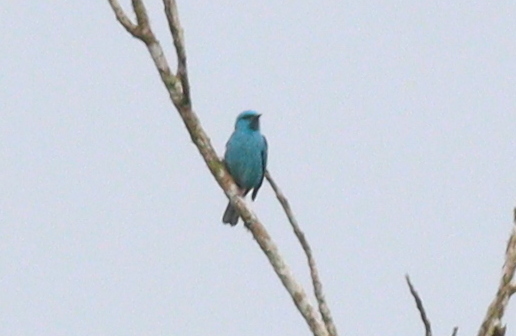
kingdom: Animalia
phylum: Chordata
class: Aves
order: Passeriformes
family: Thraupidae
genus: Dacnis
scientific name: Dacnis cayana
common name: Blue dacnis
